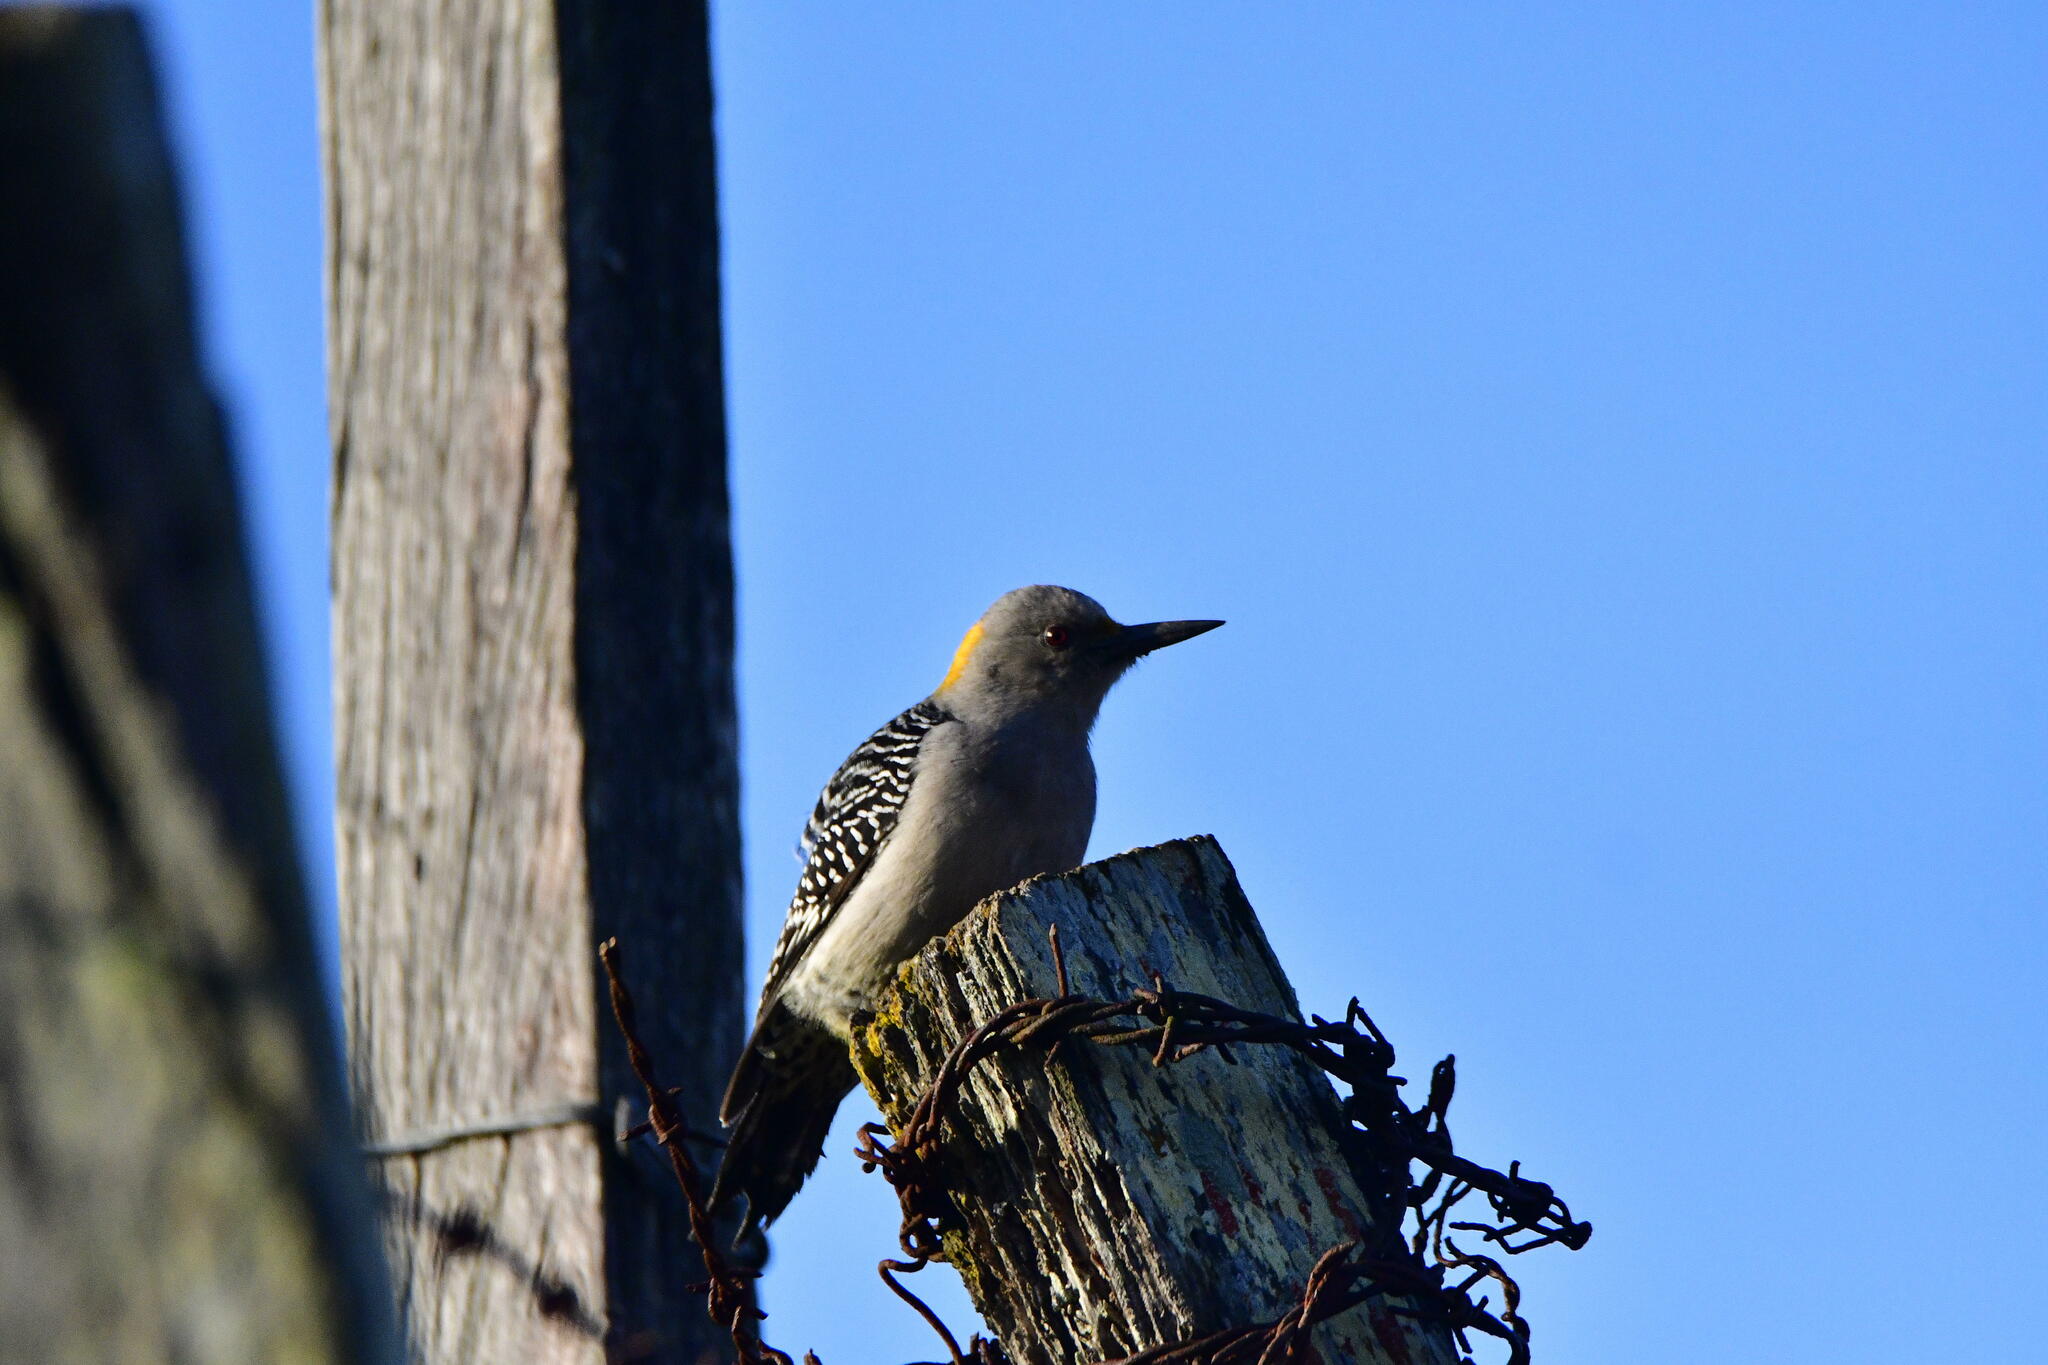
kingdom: Animalia
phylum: Chordata
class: Aves
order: Piciformes
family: Picidae
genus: Melanerpes
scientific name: Melanerpes aurifrons
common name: Golden-fronted woodpecker
